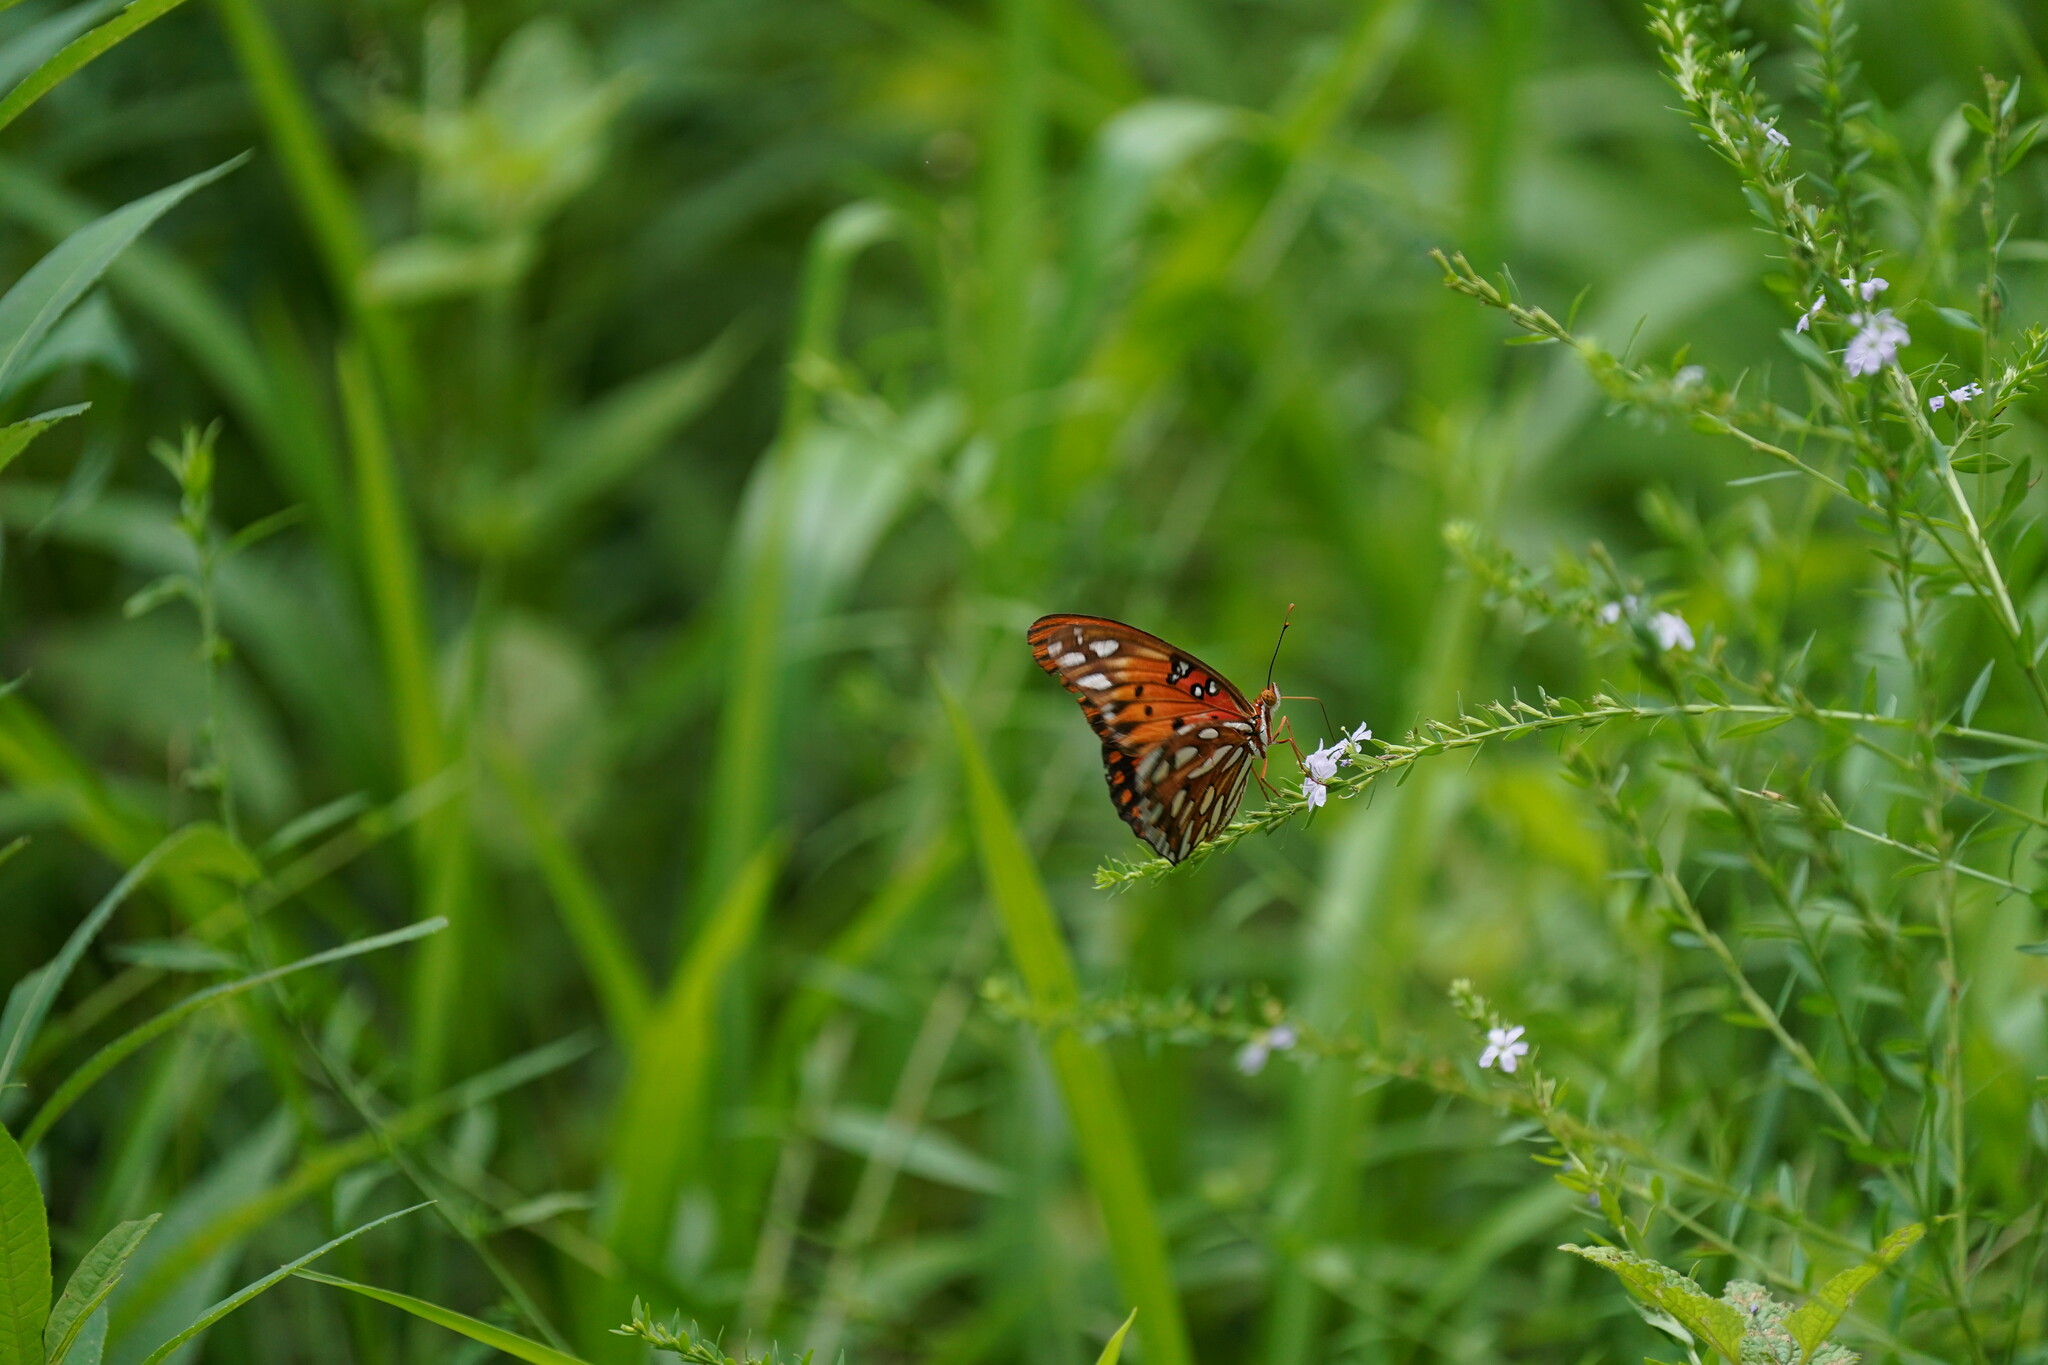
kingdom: Animalia
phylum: Arthropoda
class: Insecta
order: Lepidoptera
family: Nymphalidae
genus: Dione
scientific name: Dione vanillae
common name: Gulf fritillary
